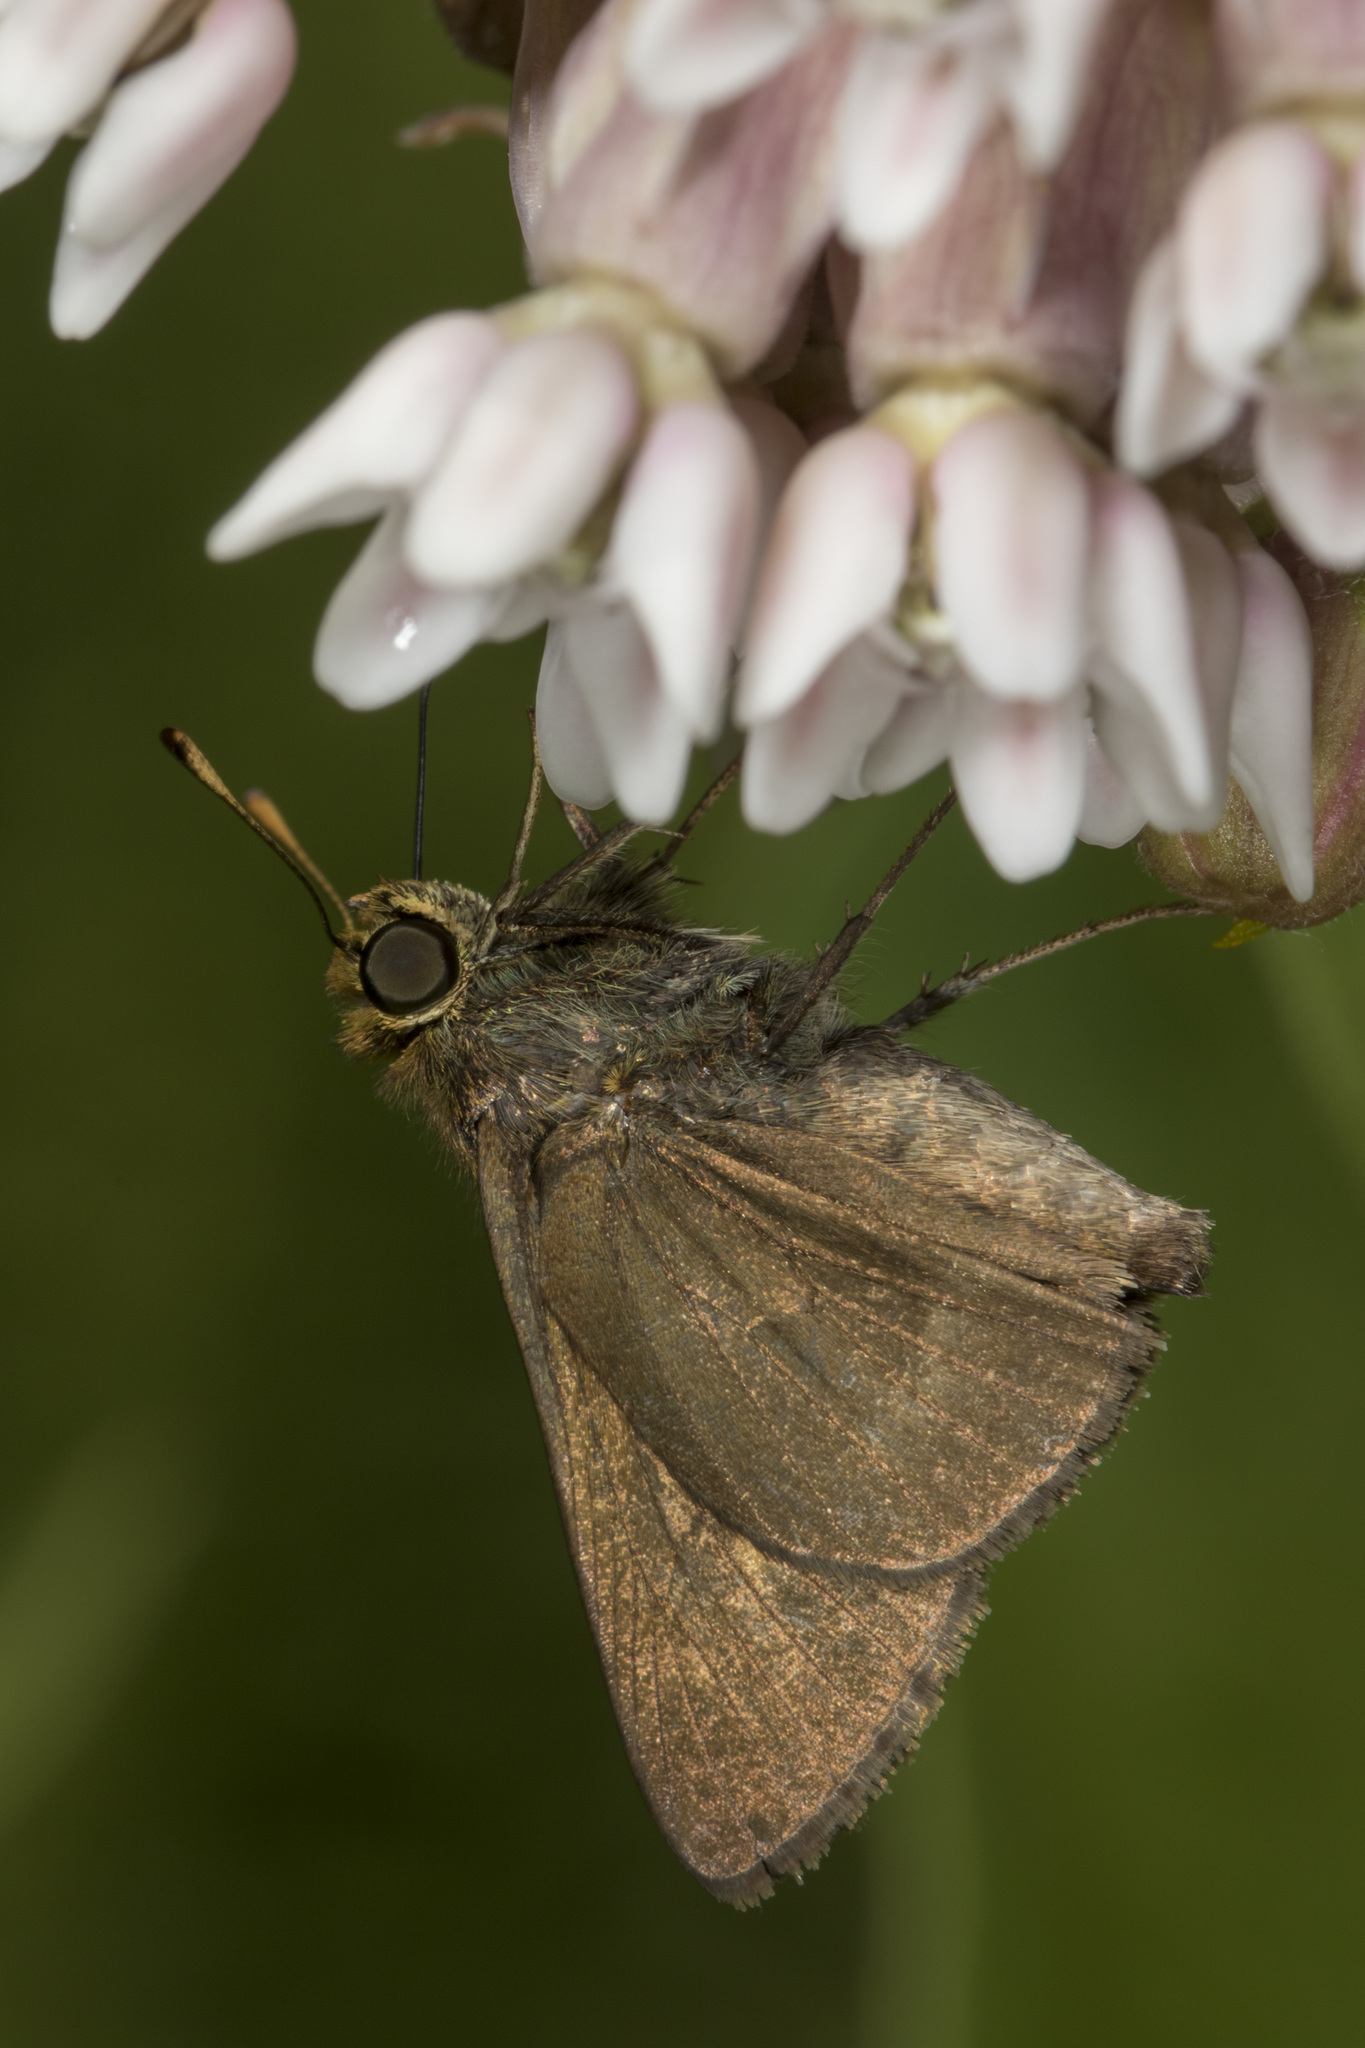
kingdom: Animalia
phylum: Arthropoda
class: Insecta
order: Lepidoptera
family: Hesperiidae
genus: Euphyes
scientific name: Euphyes vestris
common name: Dun skipper
